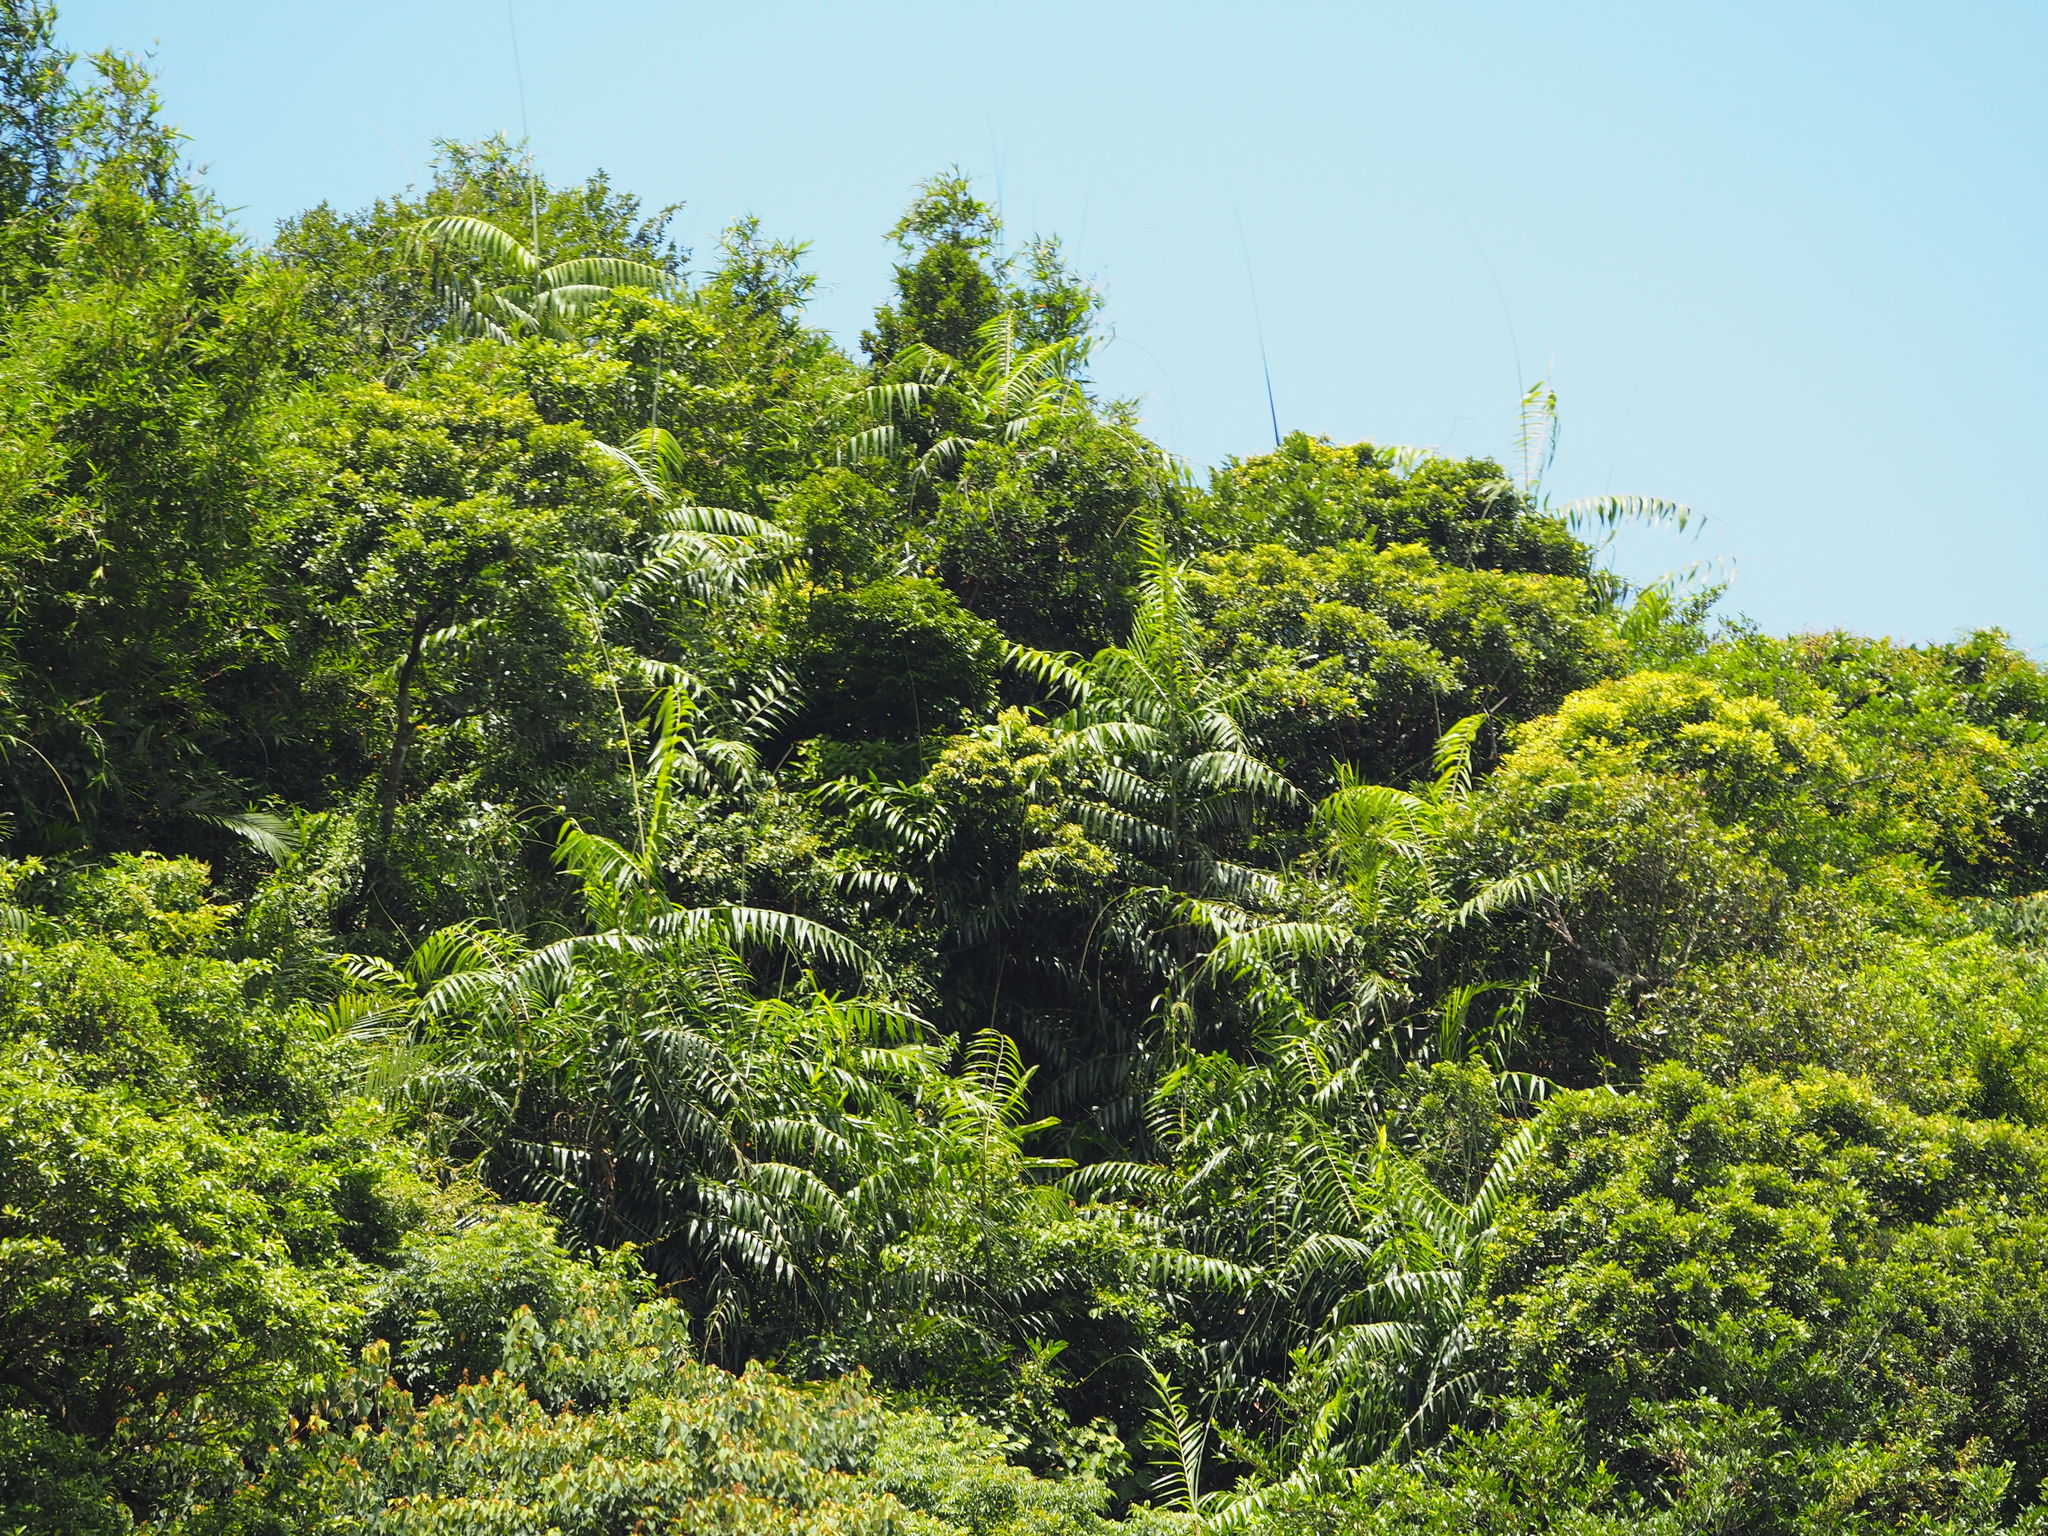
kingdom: Plantae
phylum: Tracheophyta
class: Liliopsida
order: Arecales
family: Arecaceae
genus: Calamus
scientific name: Calamus formosanus
